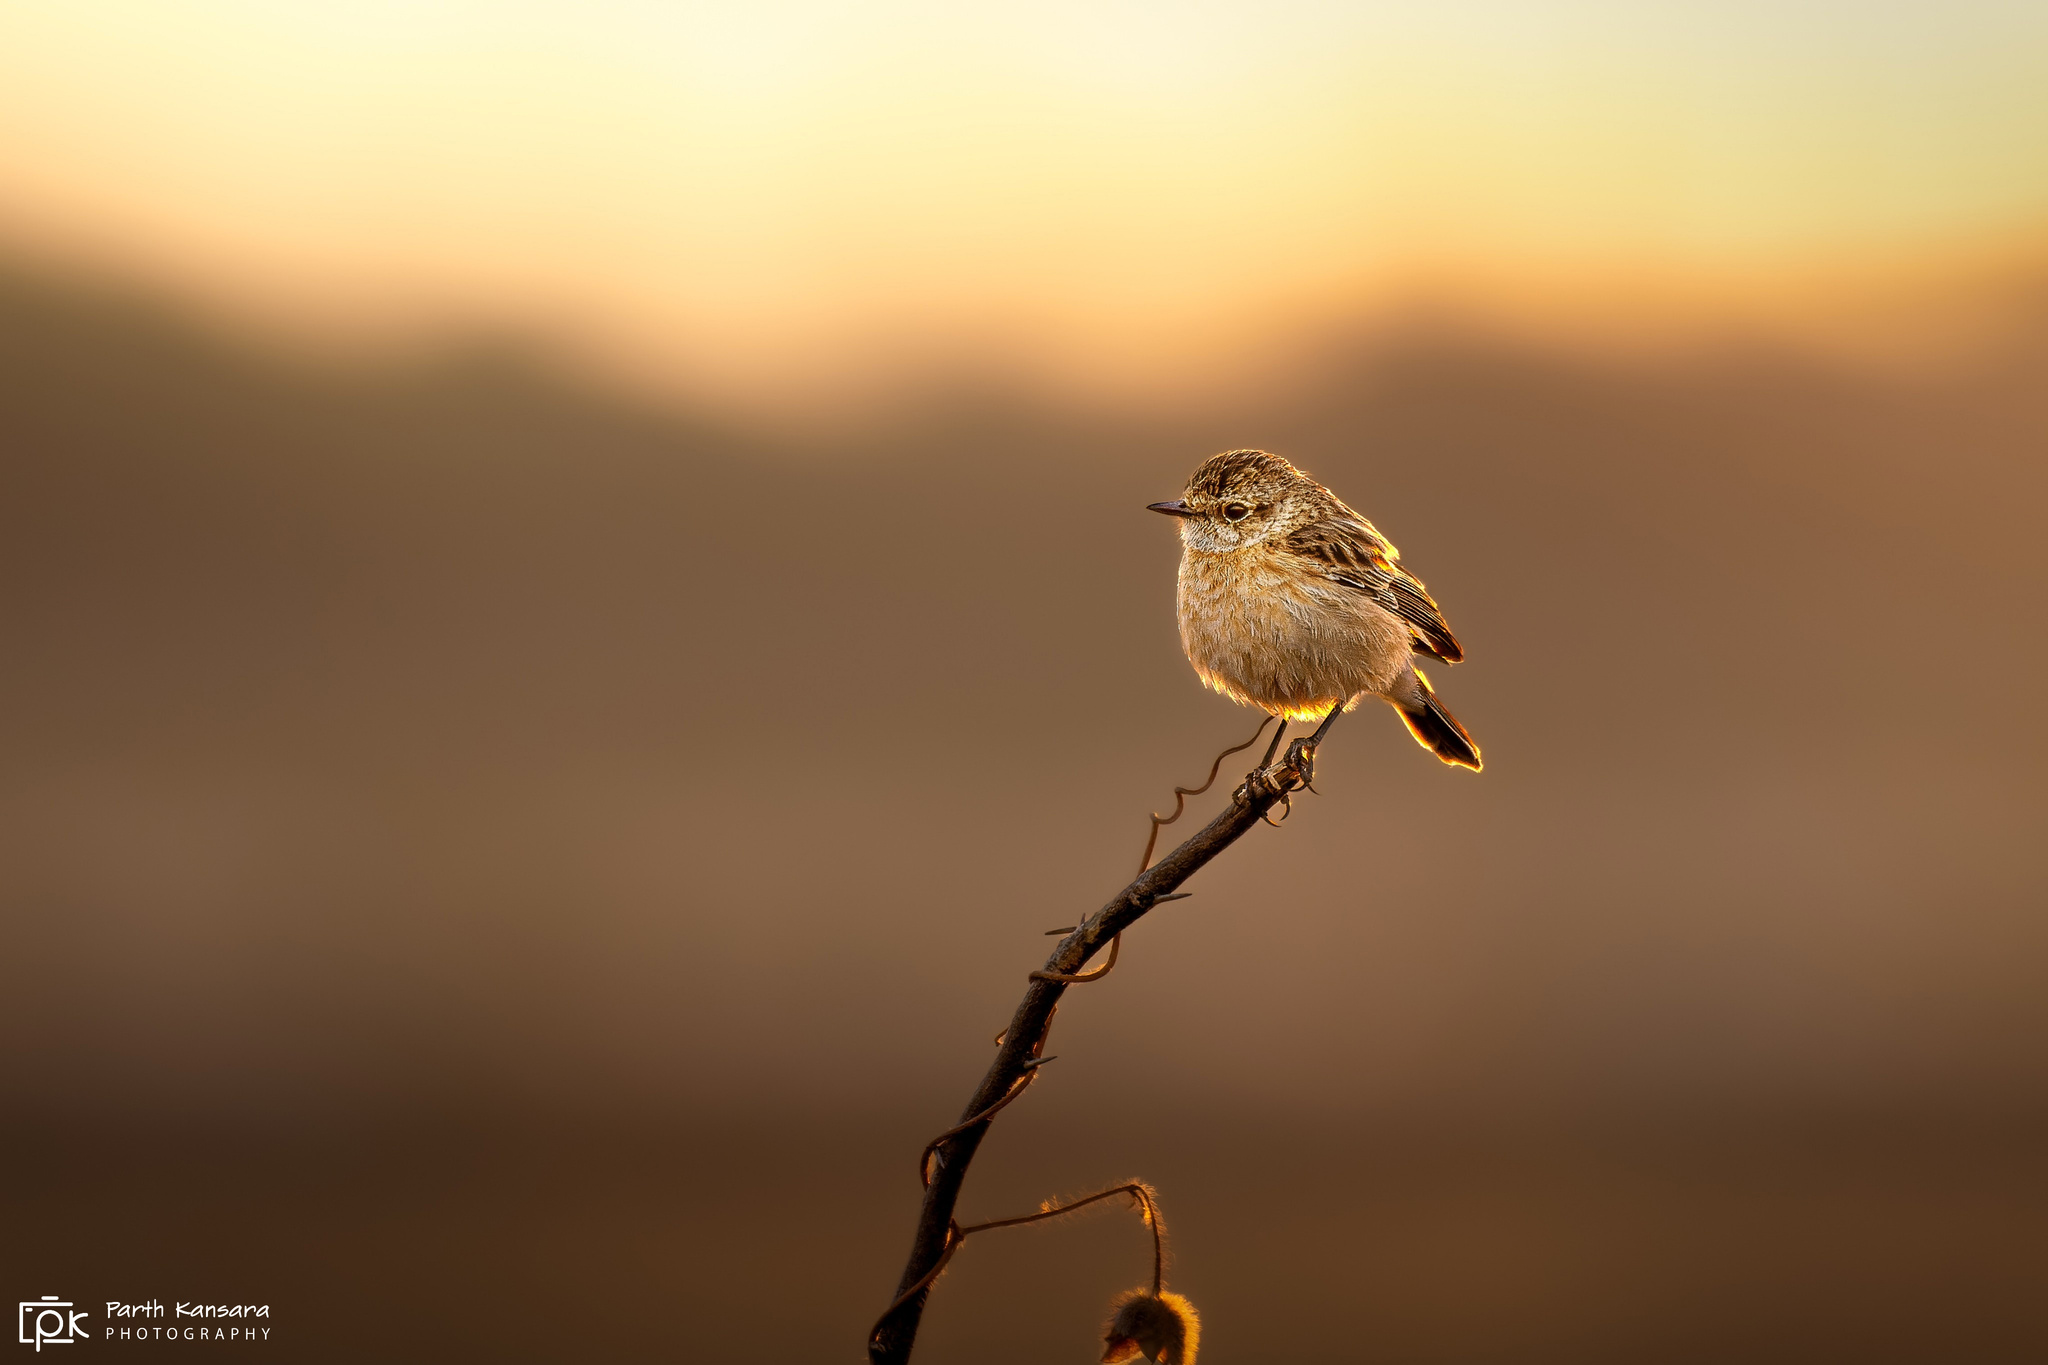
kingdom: Animalia
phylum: Chordata
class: Aves
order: Passeriformes
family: Muscicapidae
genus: Saxicola
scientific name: Saxicola maurus
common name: Siberian stonechat
